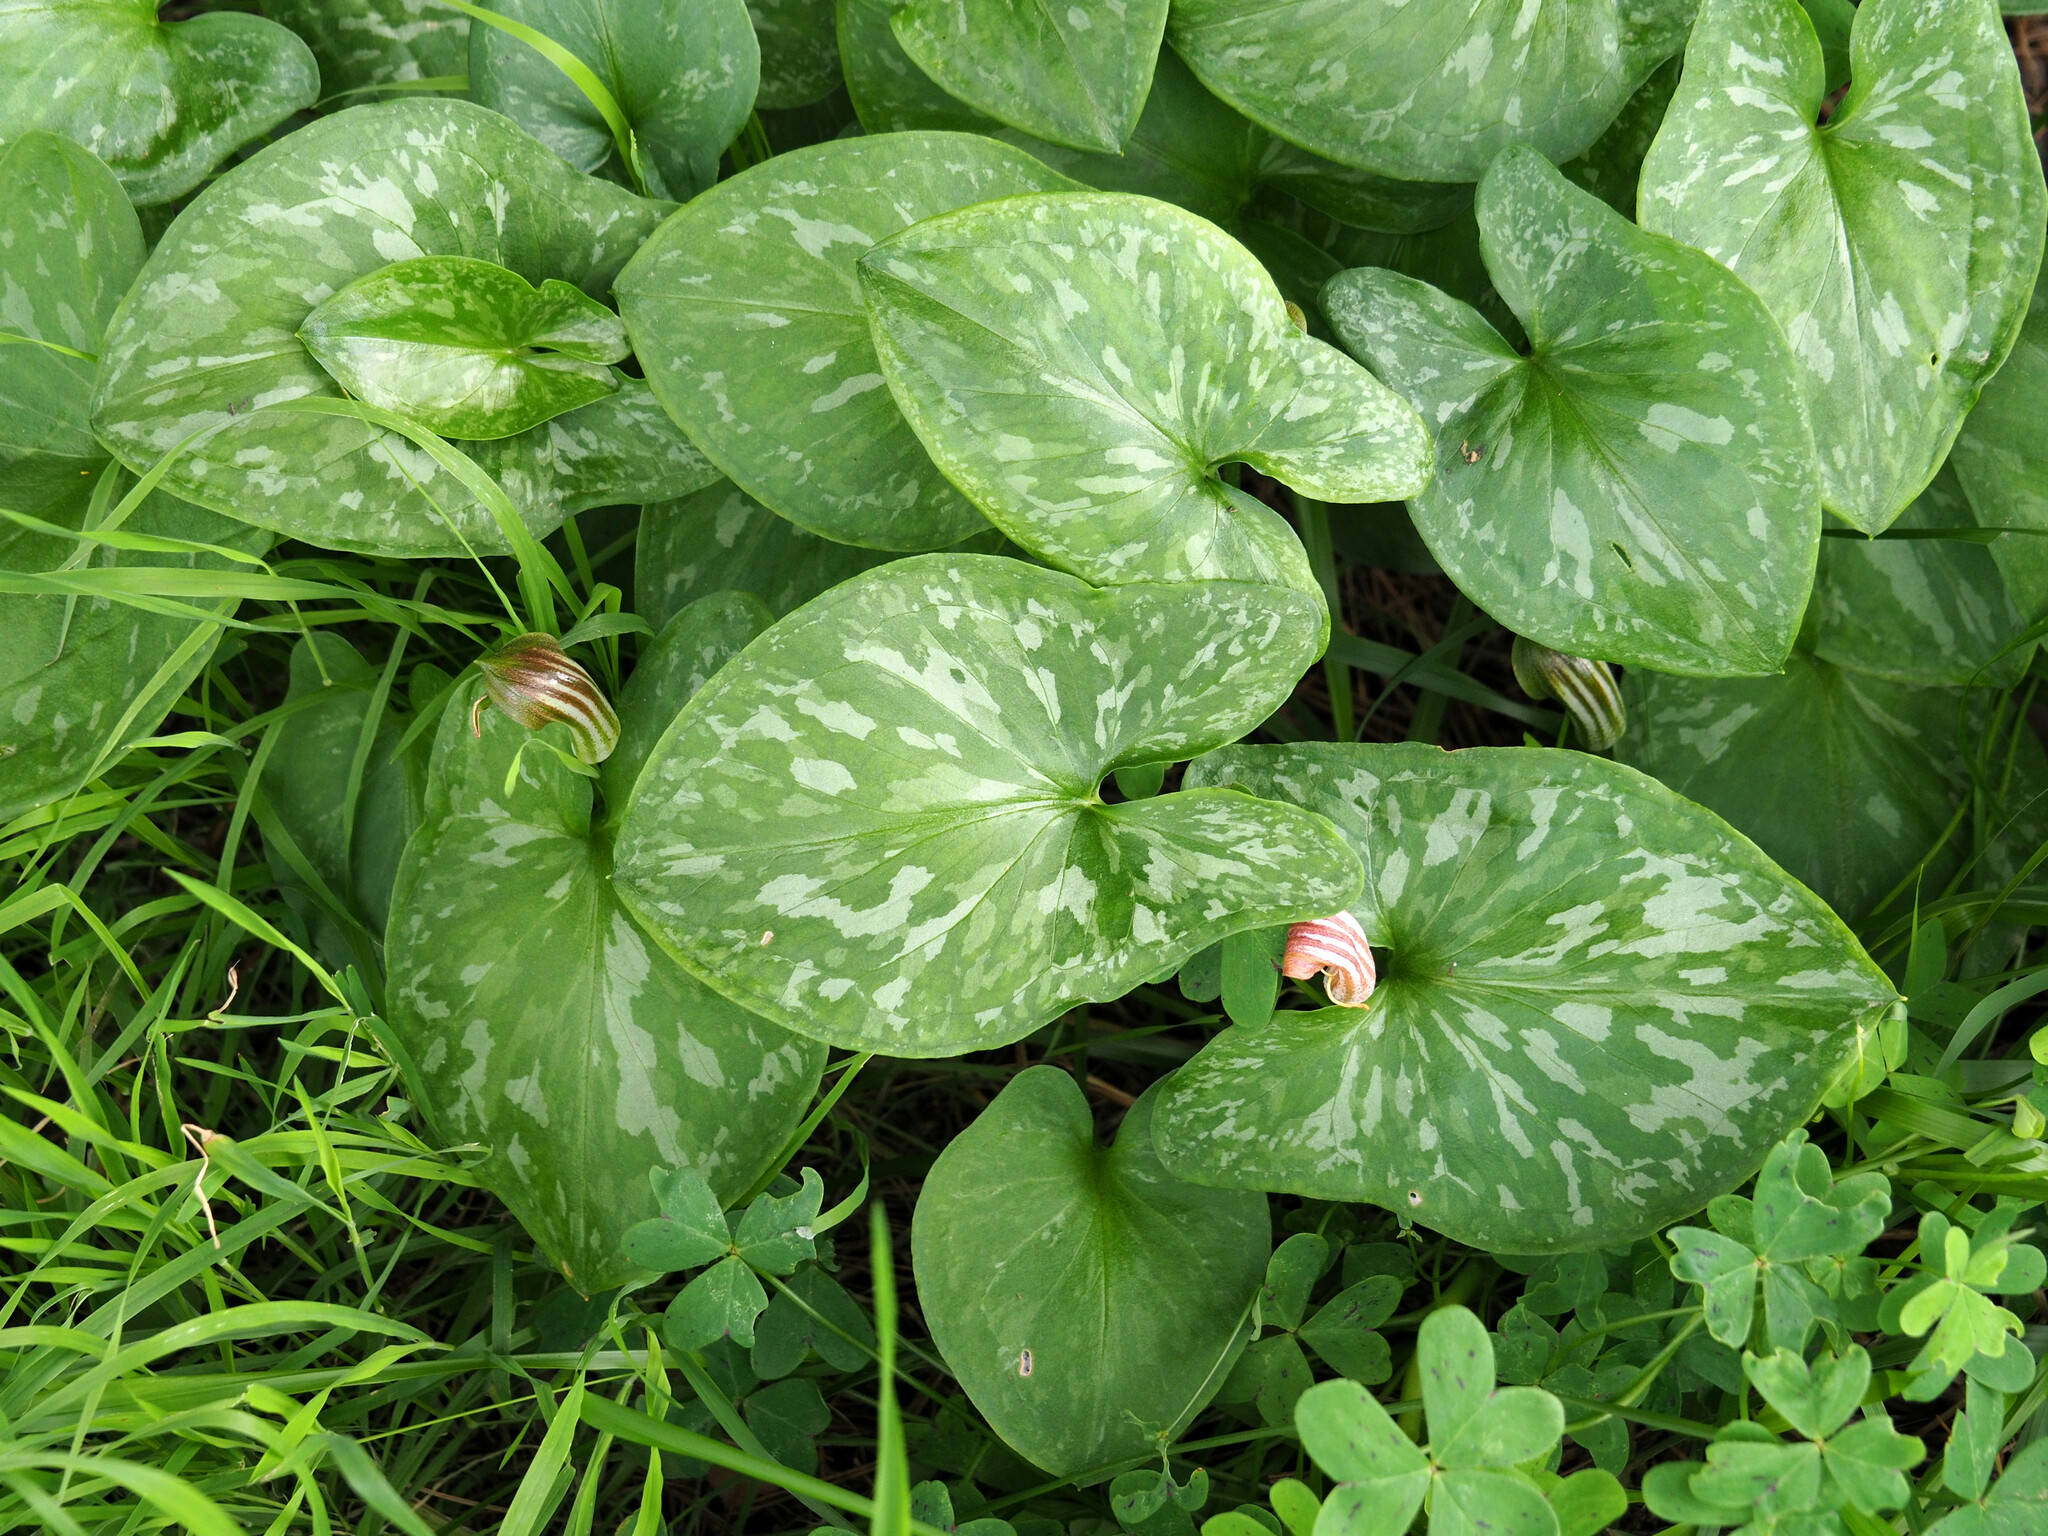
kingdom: Plantae
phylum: Tracheophyta
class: Liliopsida
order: Alismatales
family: Araceae
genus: Arisarum
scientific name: Arisarum vulgare
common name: Common arisarum
